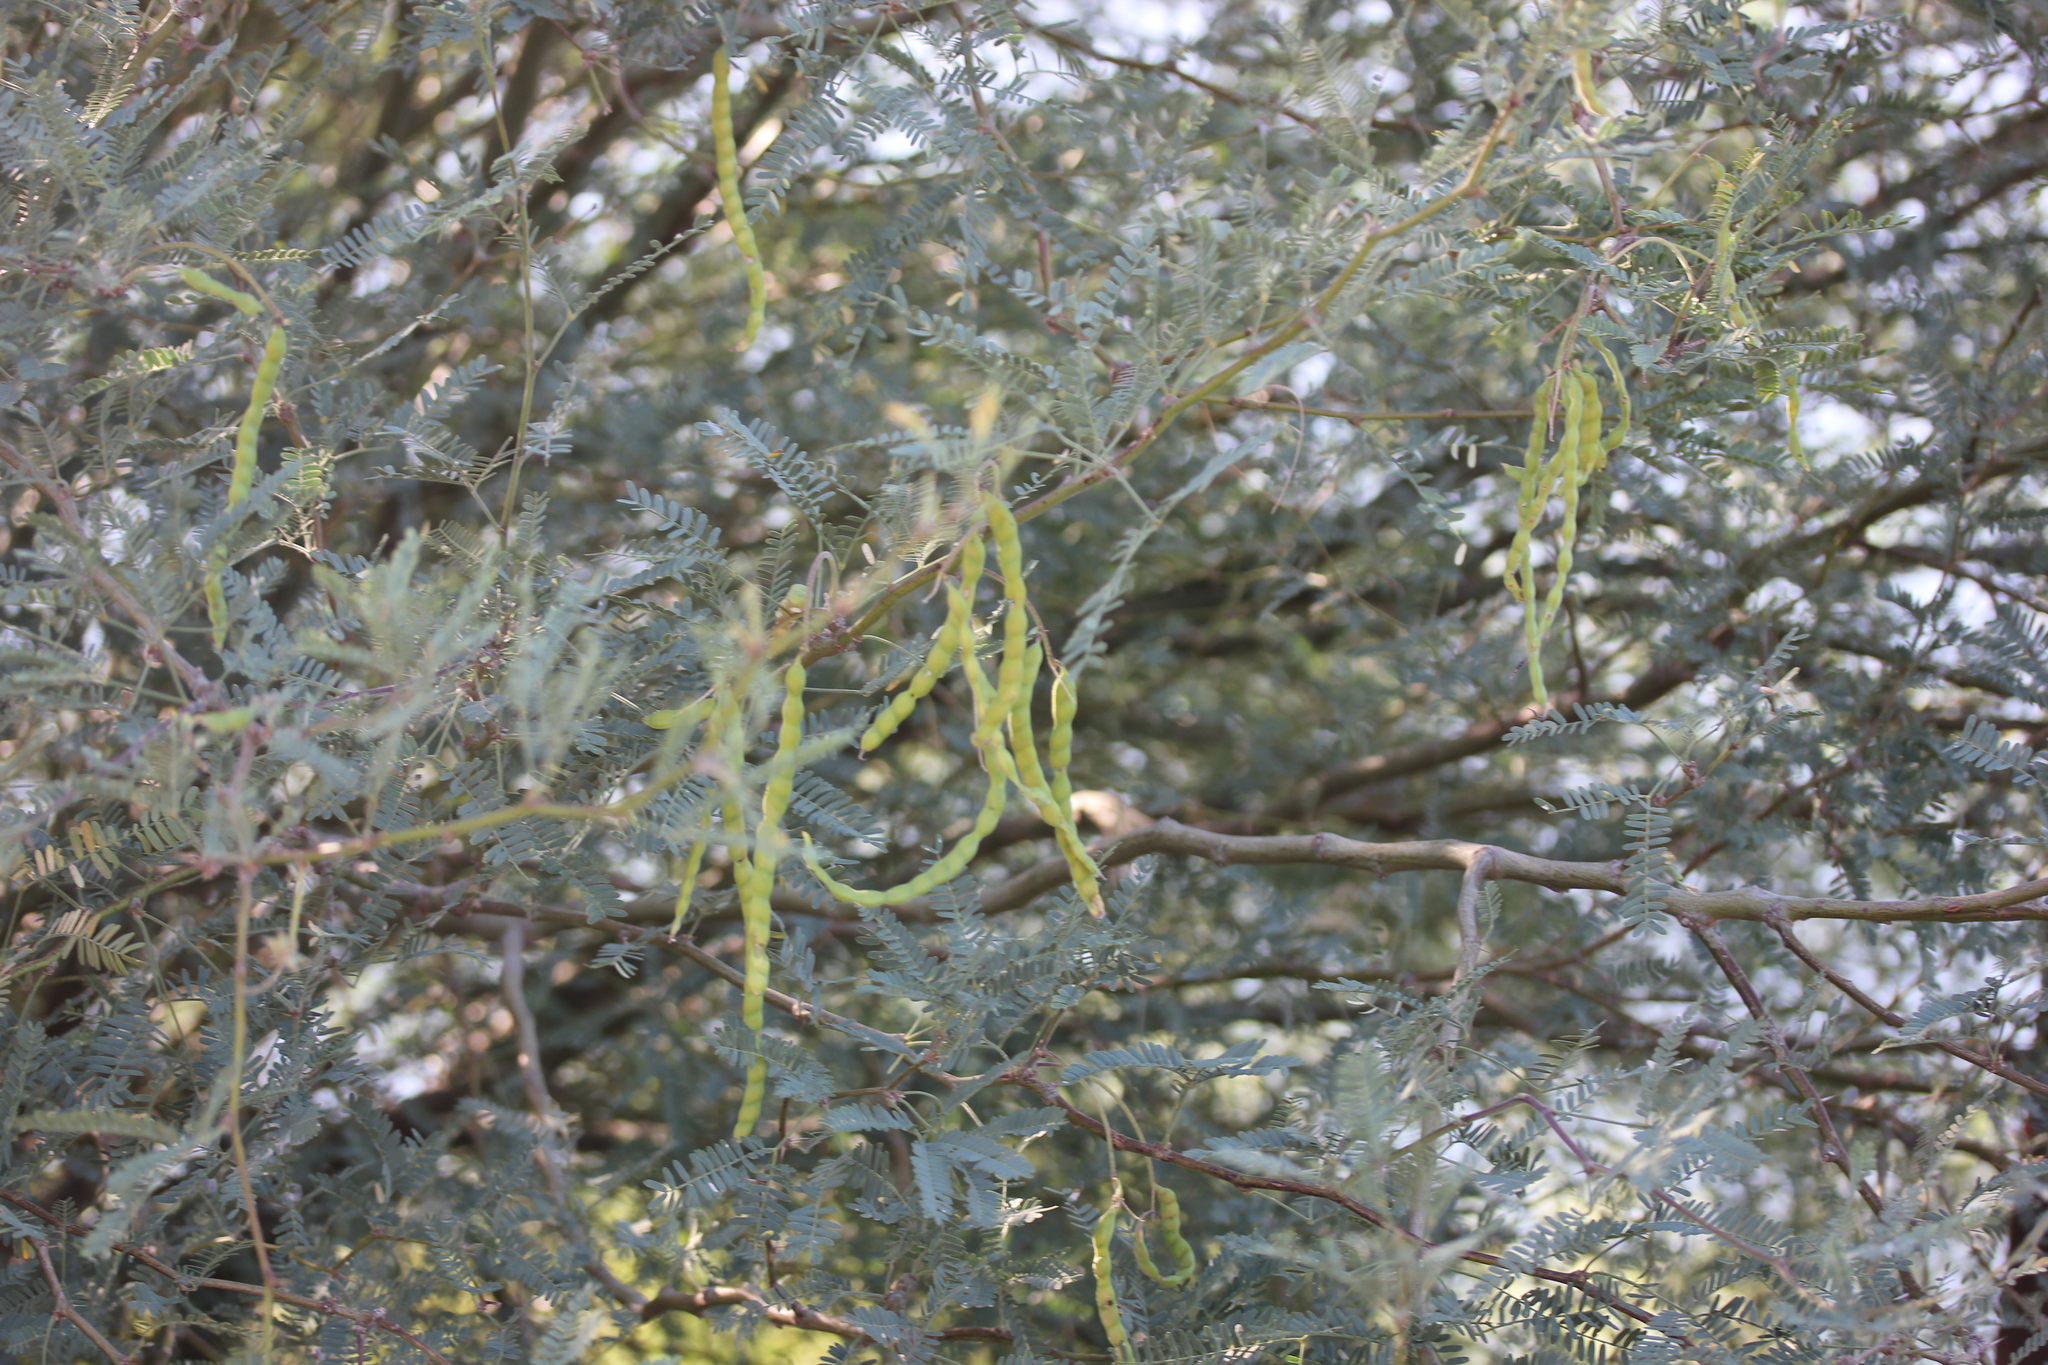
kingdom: Plantae
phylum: Tracheophyta
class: Magnoliopsida
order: Fabales
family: Fabaceae
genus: Prosopis
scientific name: Prosopis velutina
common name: Velvet mesquite
